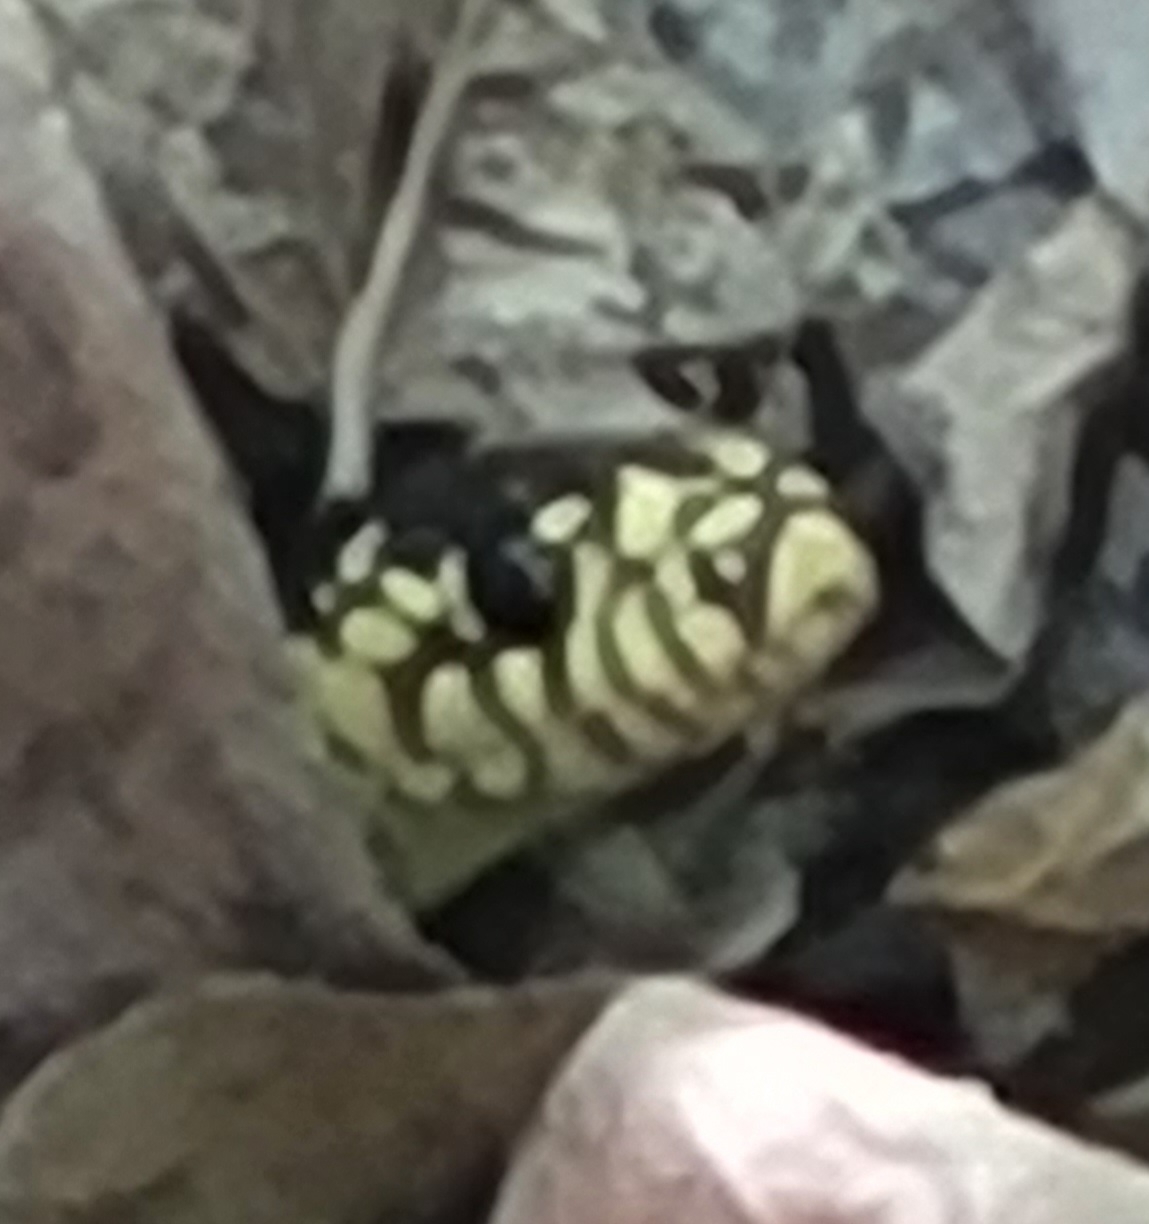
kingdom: Animalia
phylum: Chordata
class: Squamata
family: Colubridae
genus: Lampropeltis
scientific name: Lampropeltis californiae
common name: California kingsnake
